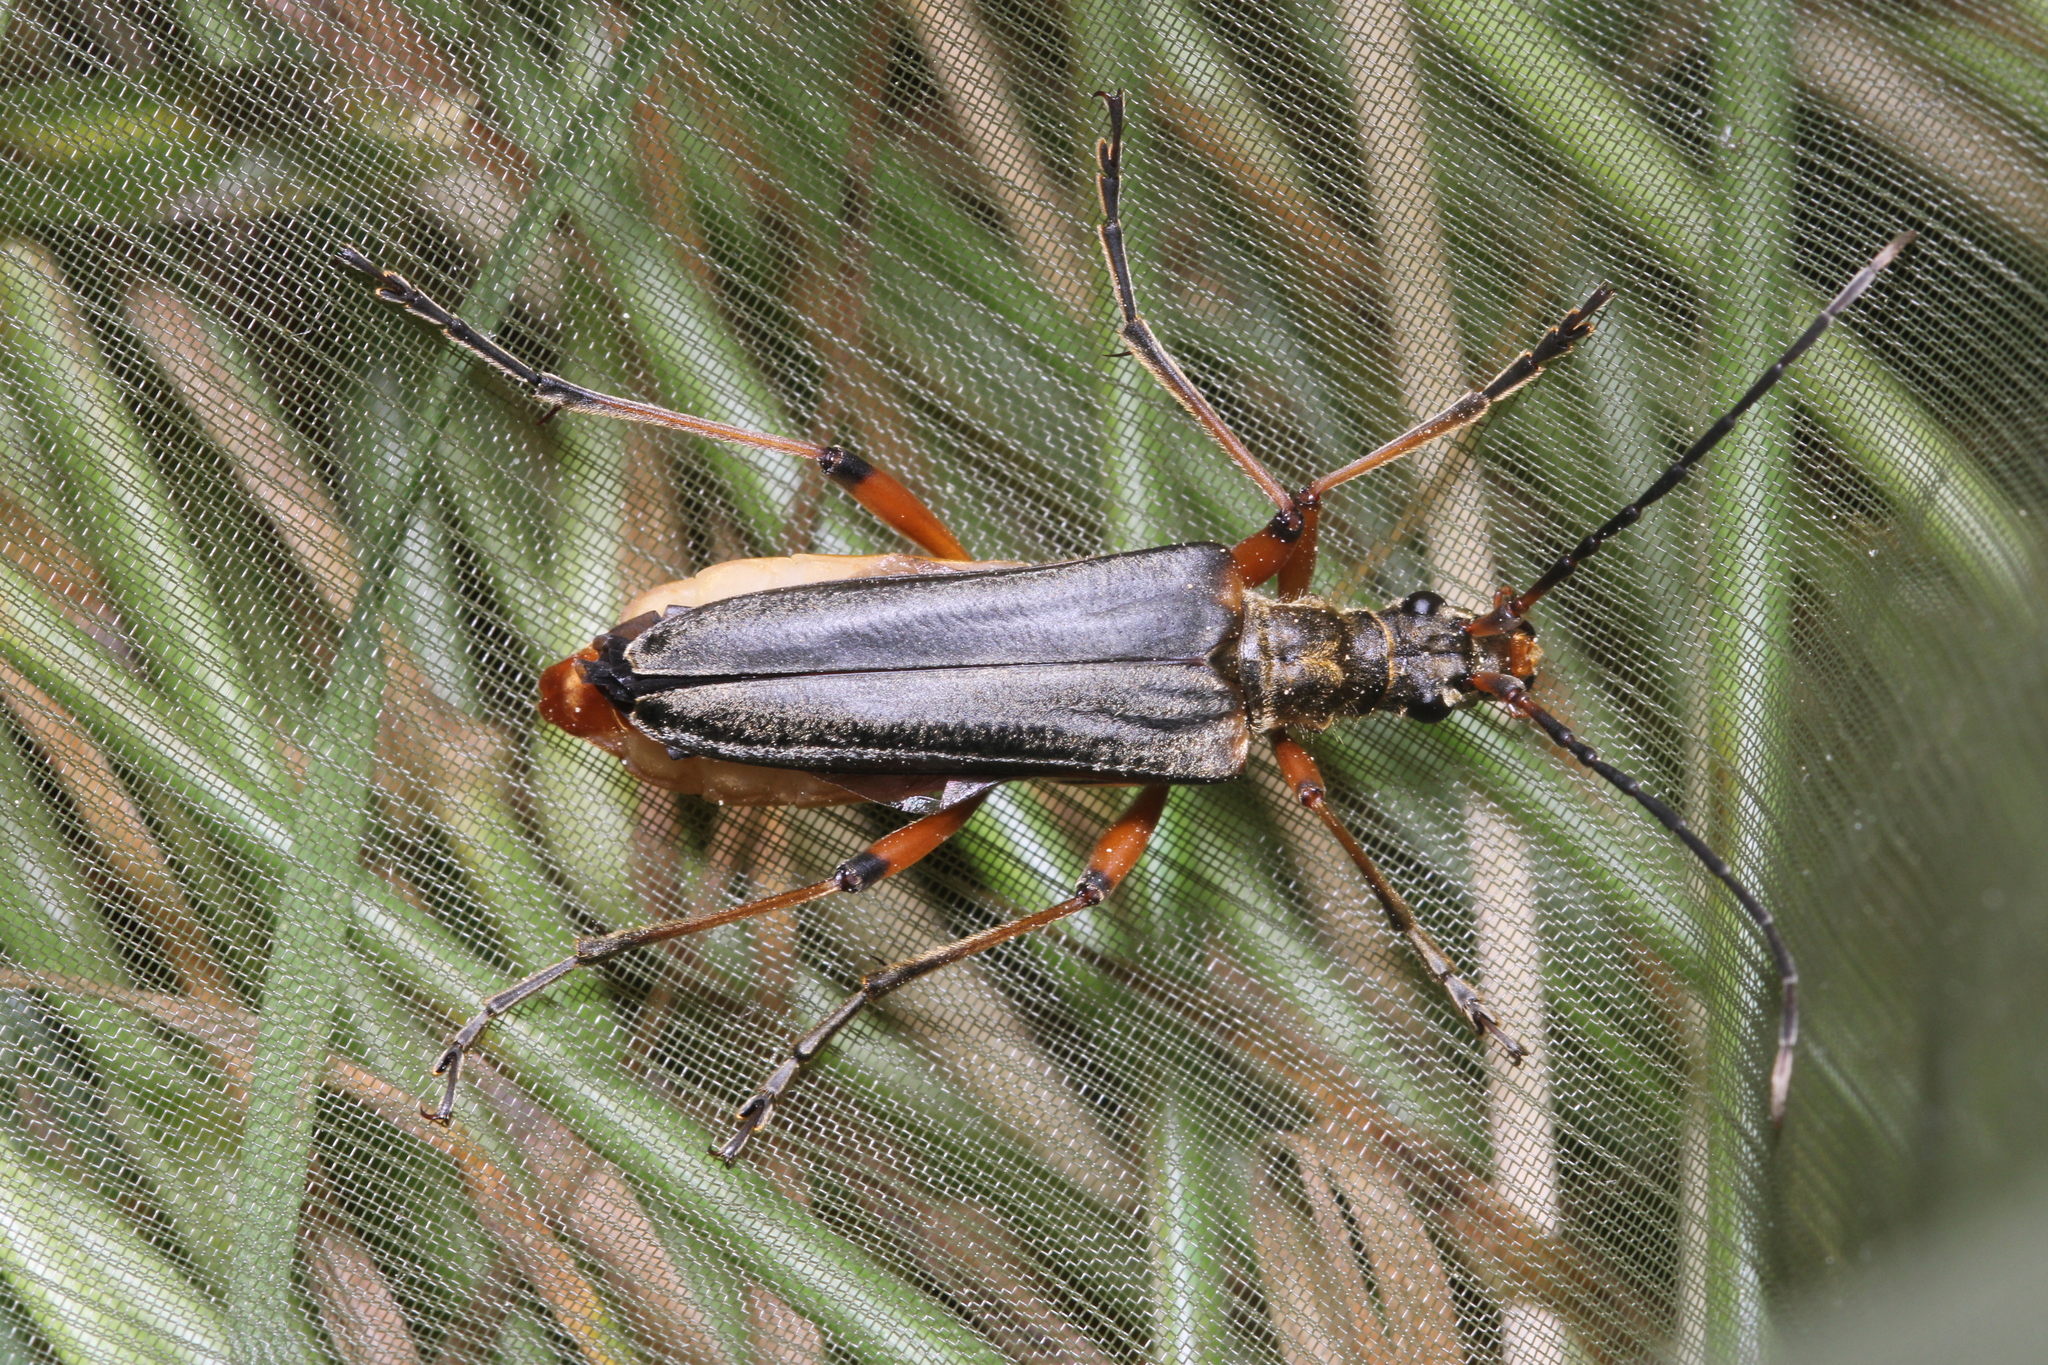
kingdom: Animalia
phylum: Arthropoda
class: Insecta
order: Coleoptera
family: Cerambycidae
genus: Stenocorus
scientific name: Stenocorus meridianus
